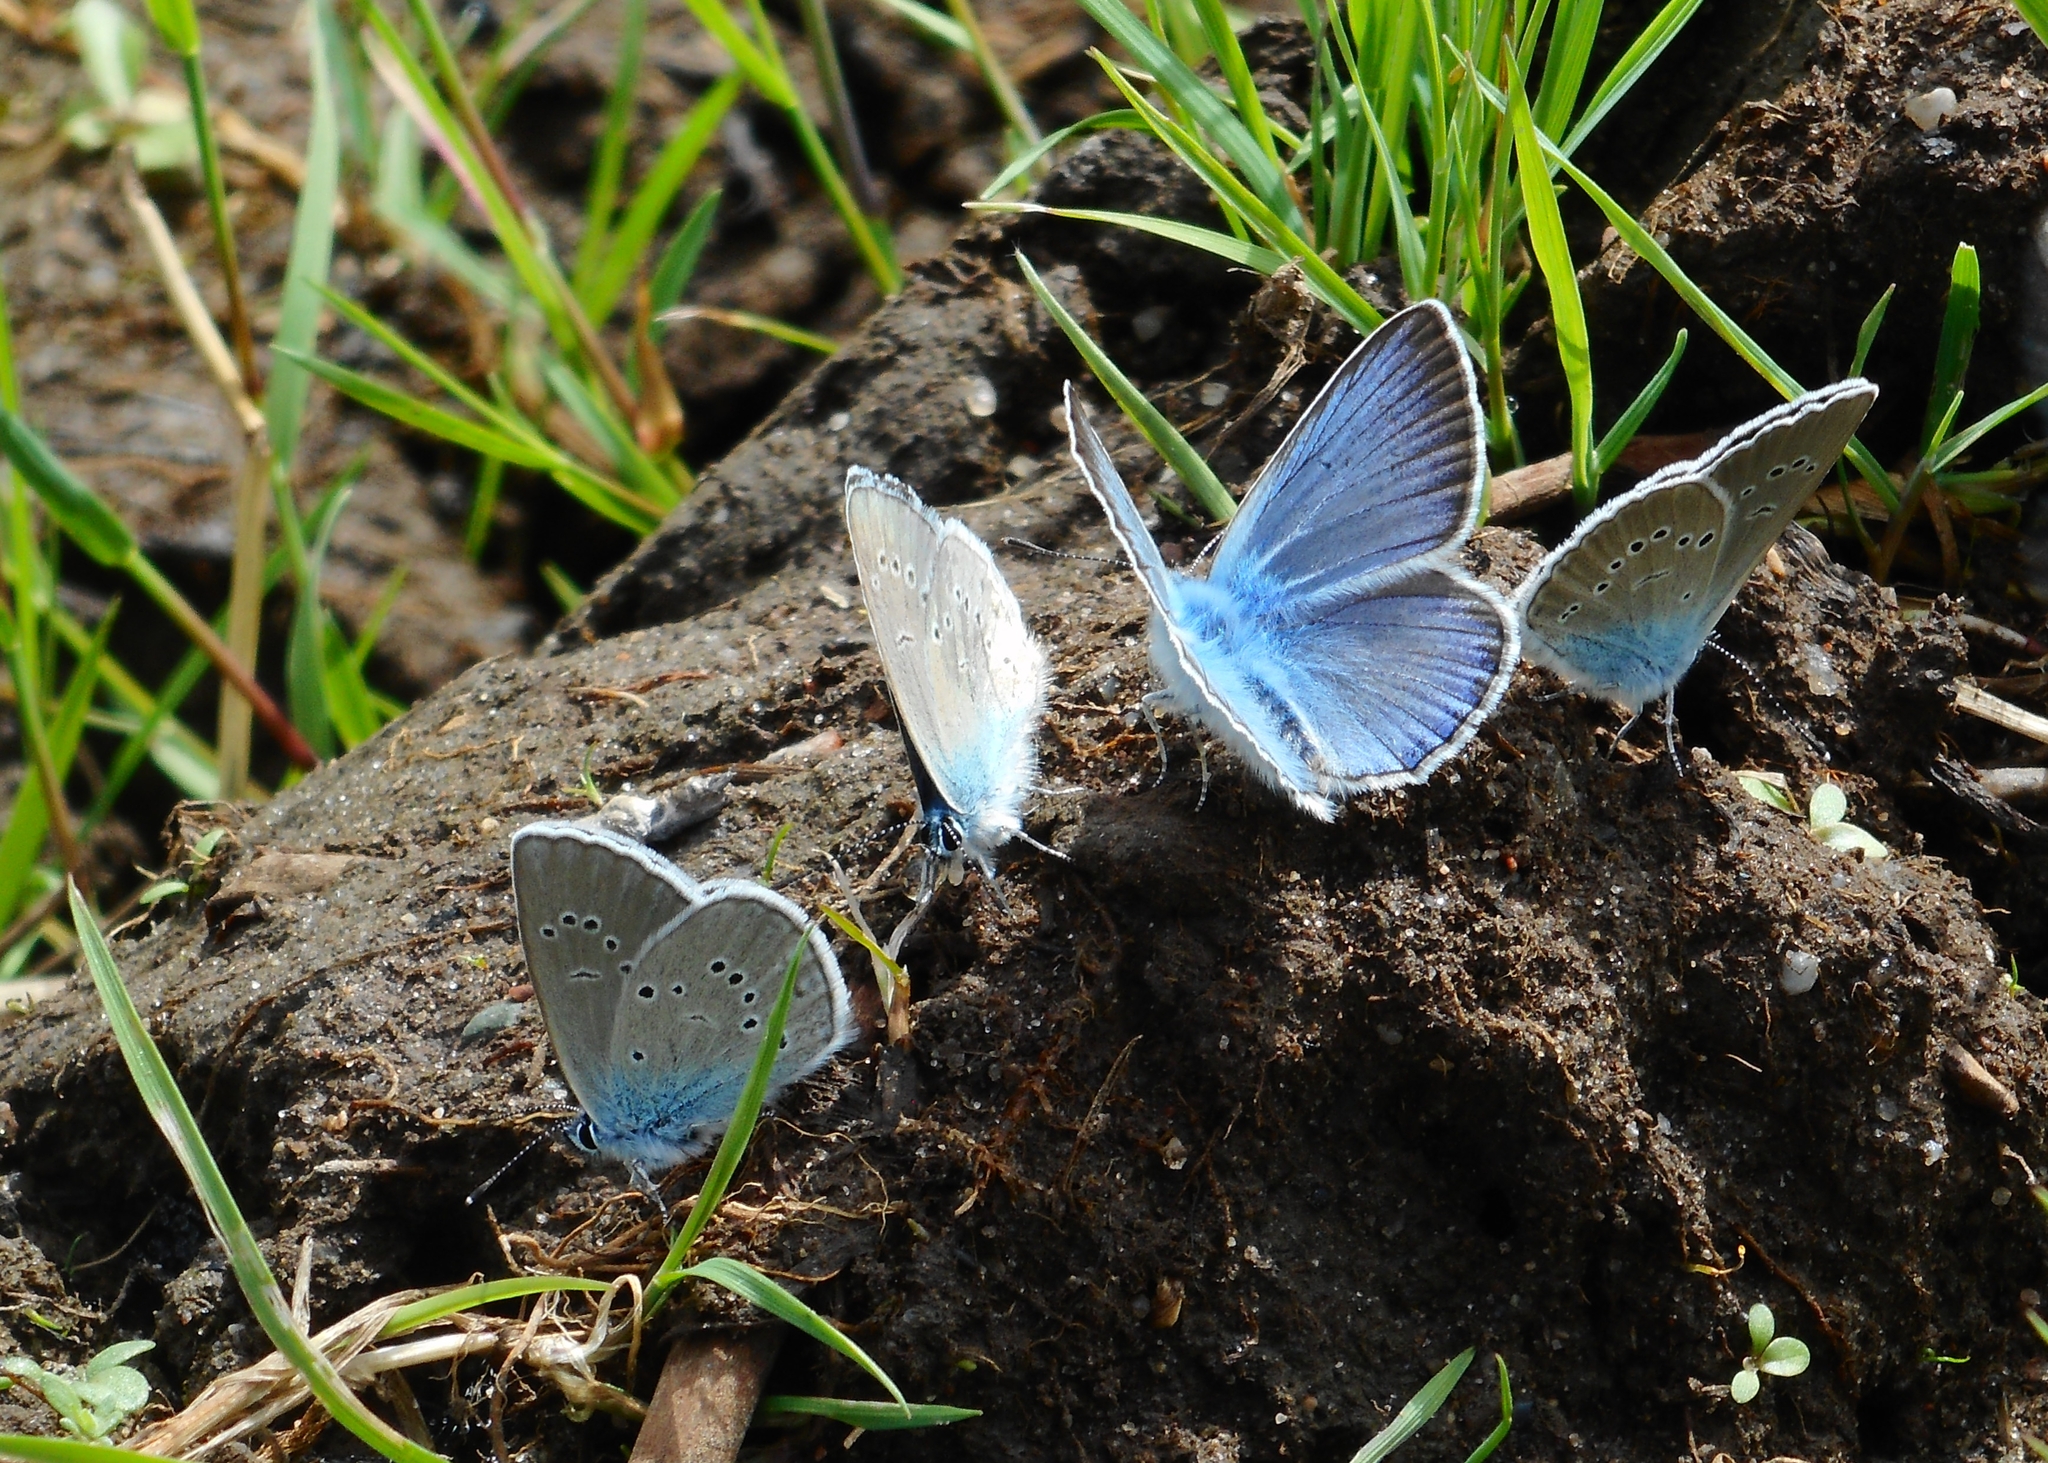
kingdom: Animalia
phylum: Arthropoda
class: Insecta
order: Lepidoptera
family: Lycaenidae
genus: Cyaniris
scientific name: Cyaniris semiargus
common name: Mazarine blue
